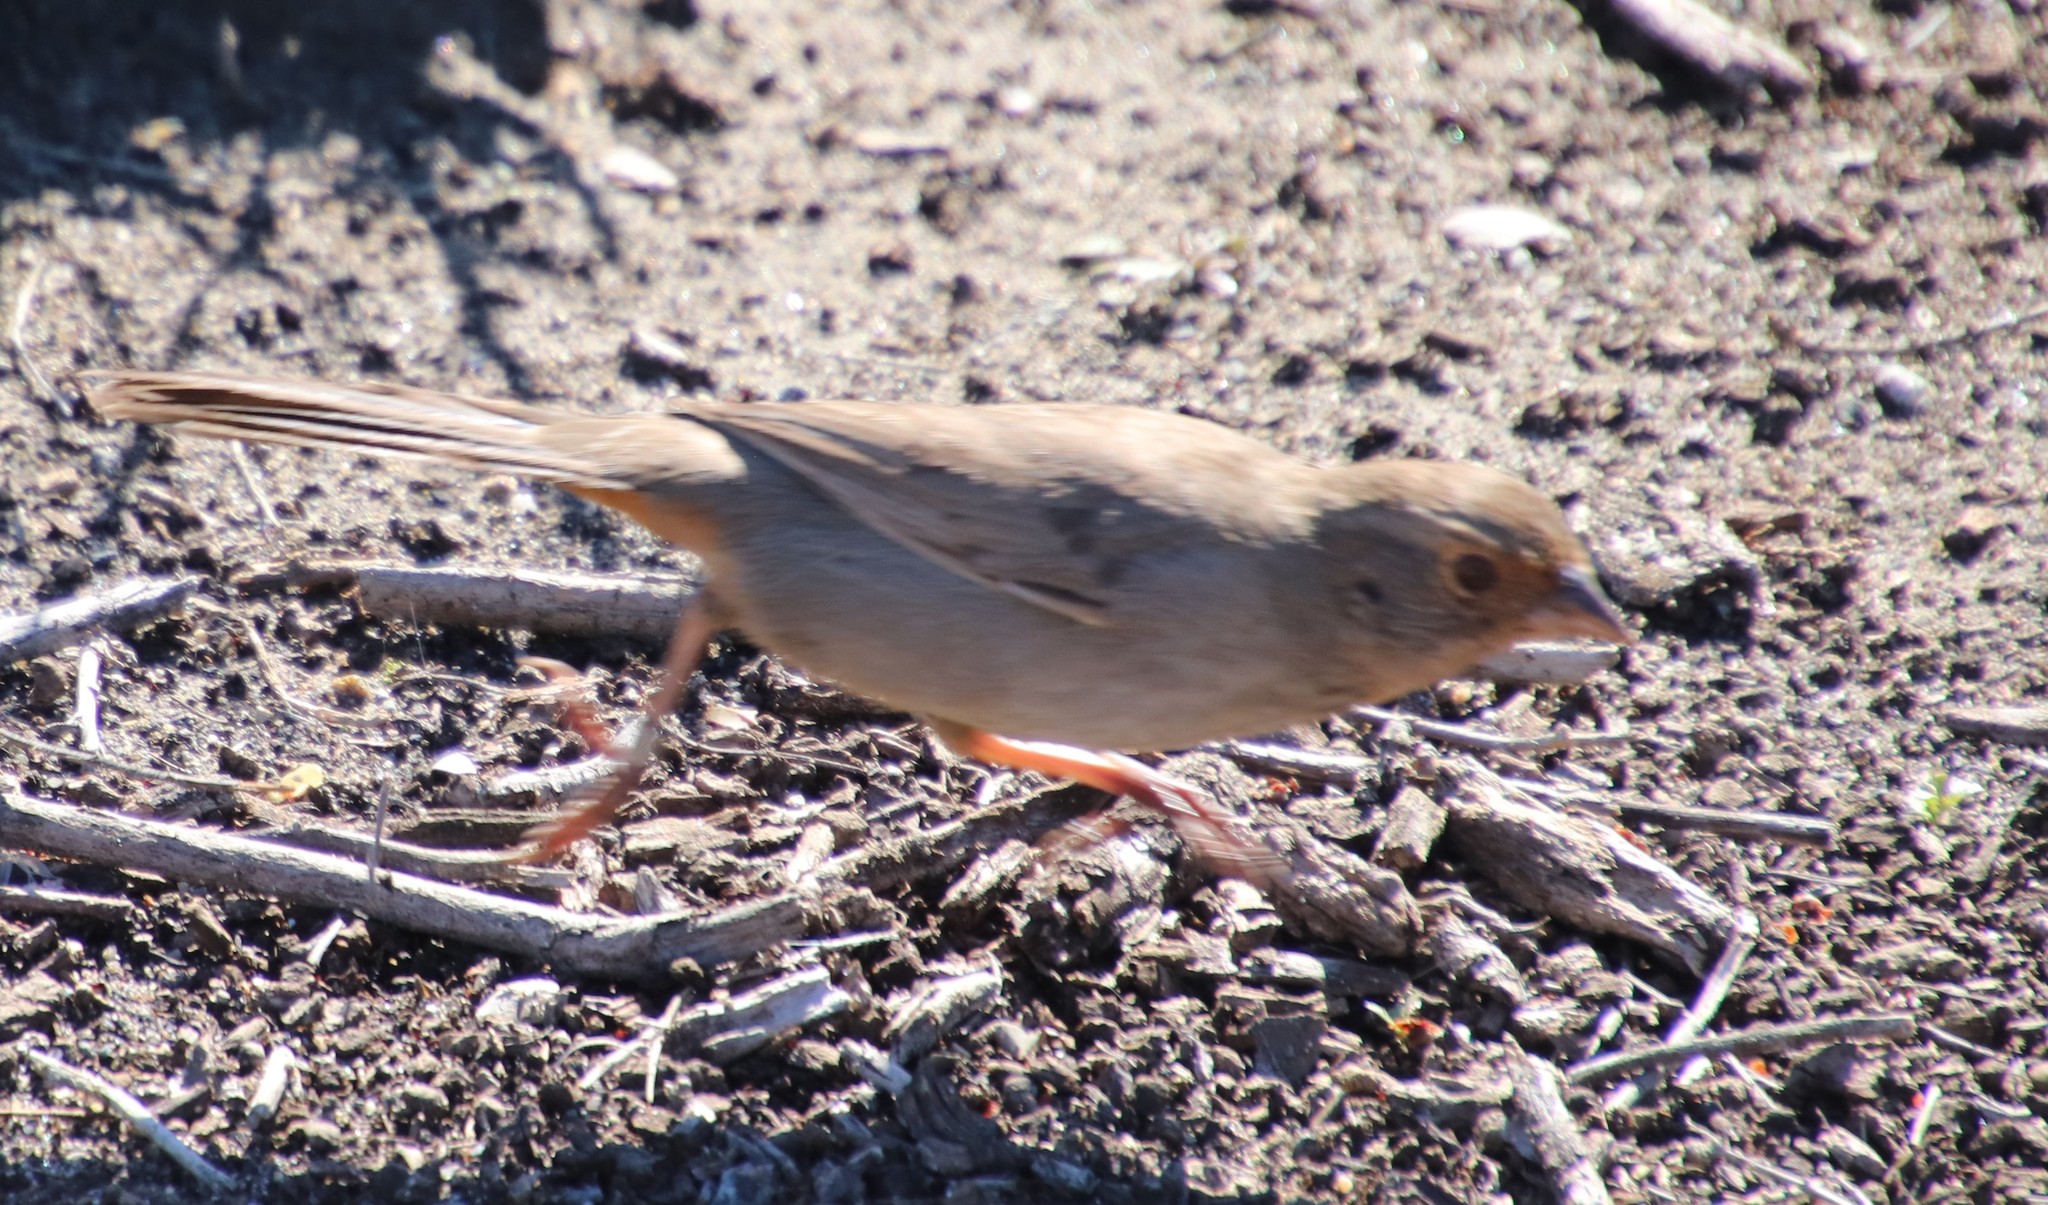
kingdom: Animalia
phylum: Chordata
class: Aves
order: Passeriformes
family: Passerellidae
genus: Melozone
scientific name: Melozone crissalis
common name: California towhee
